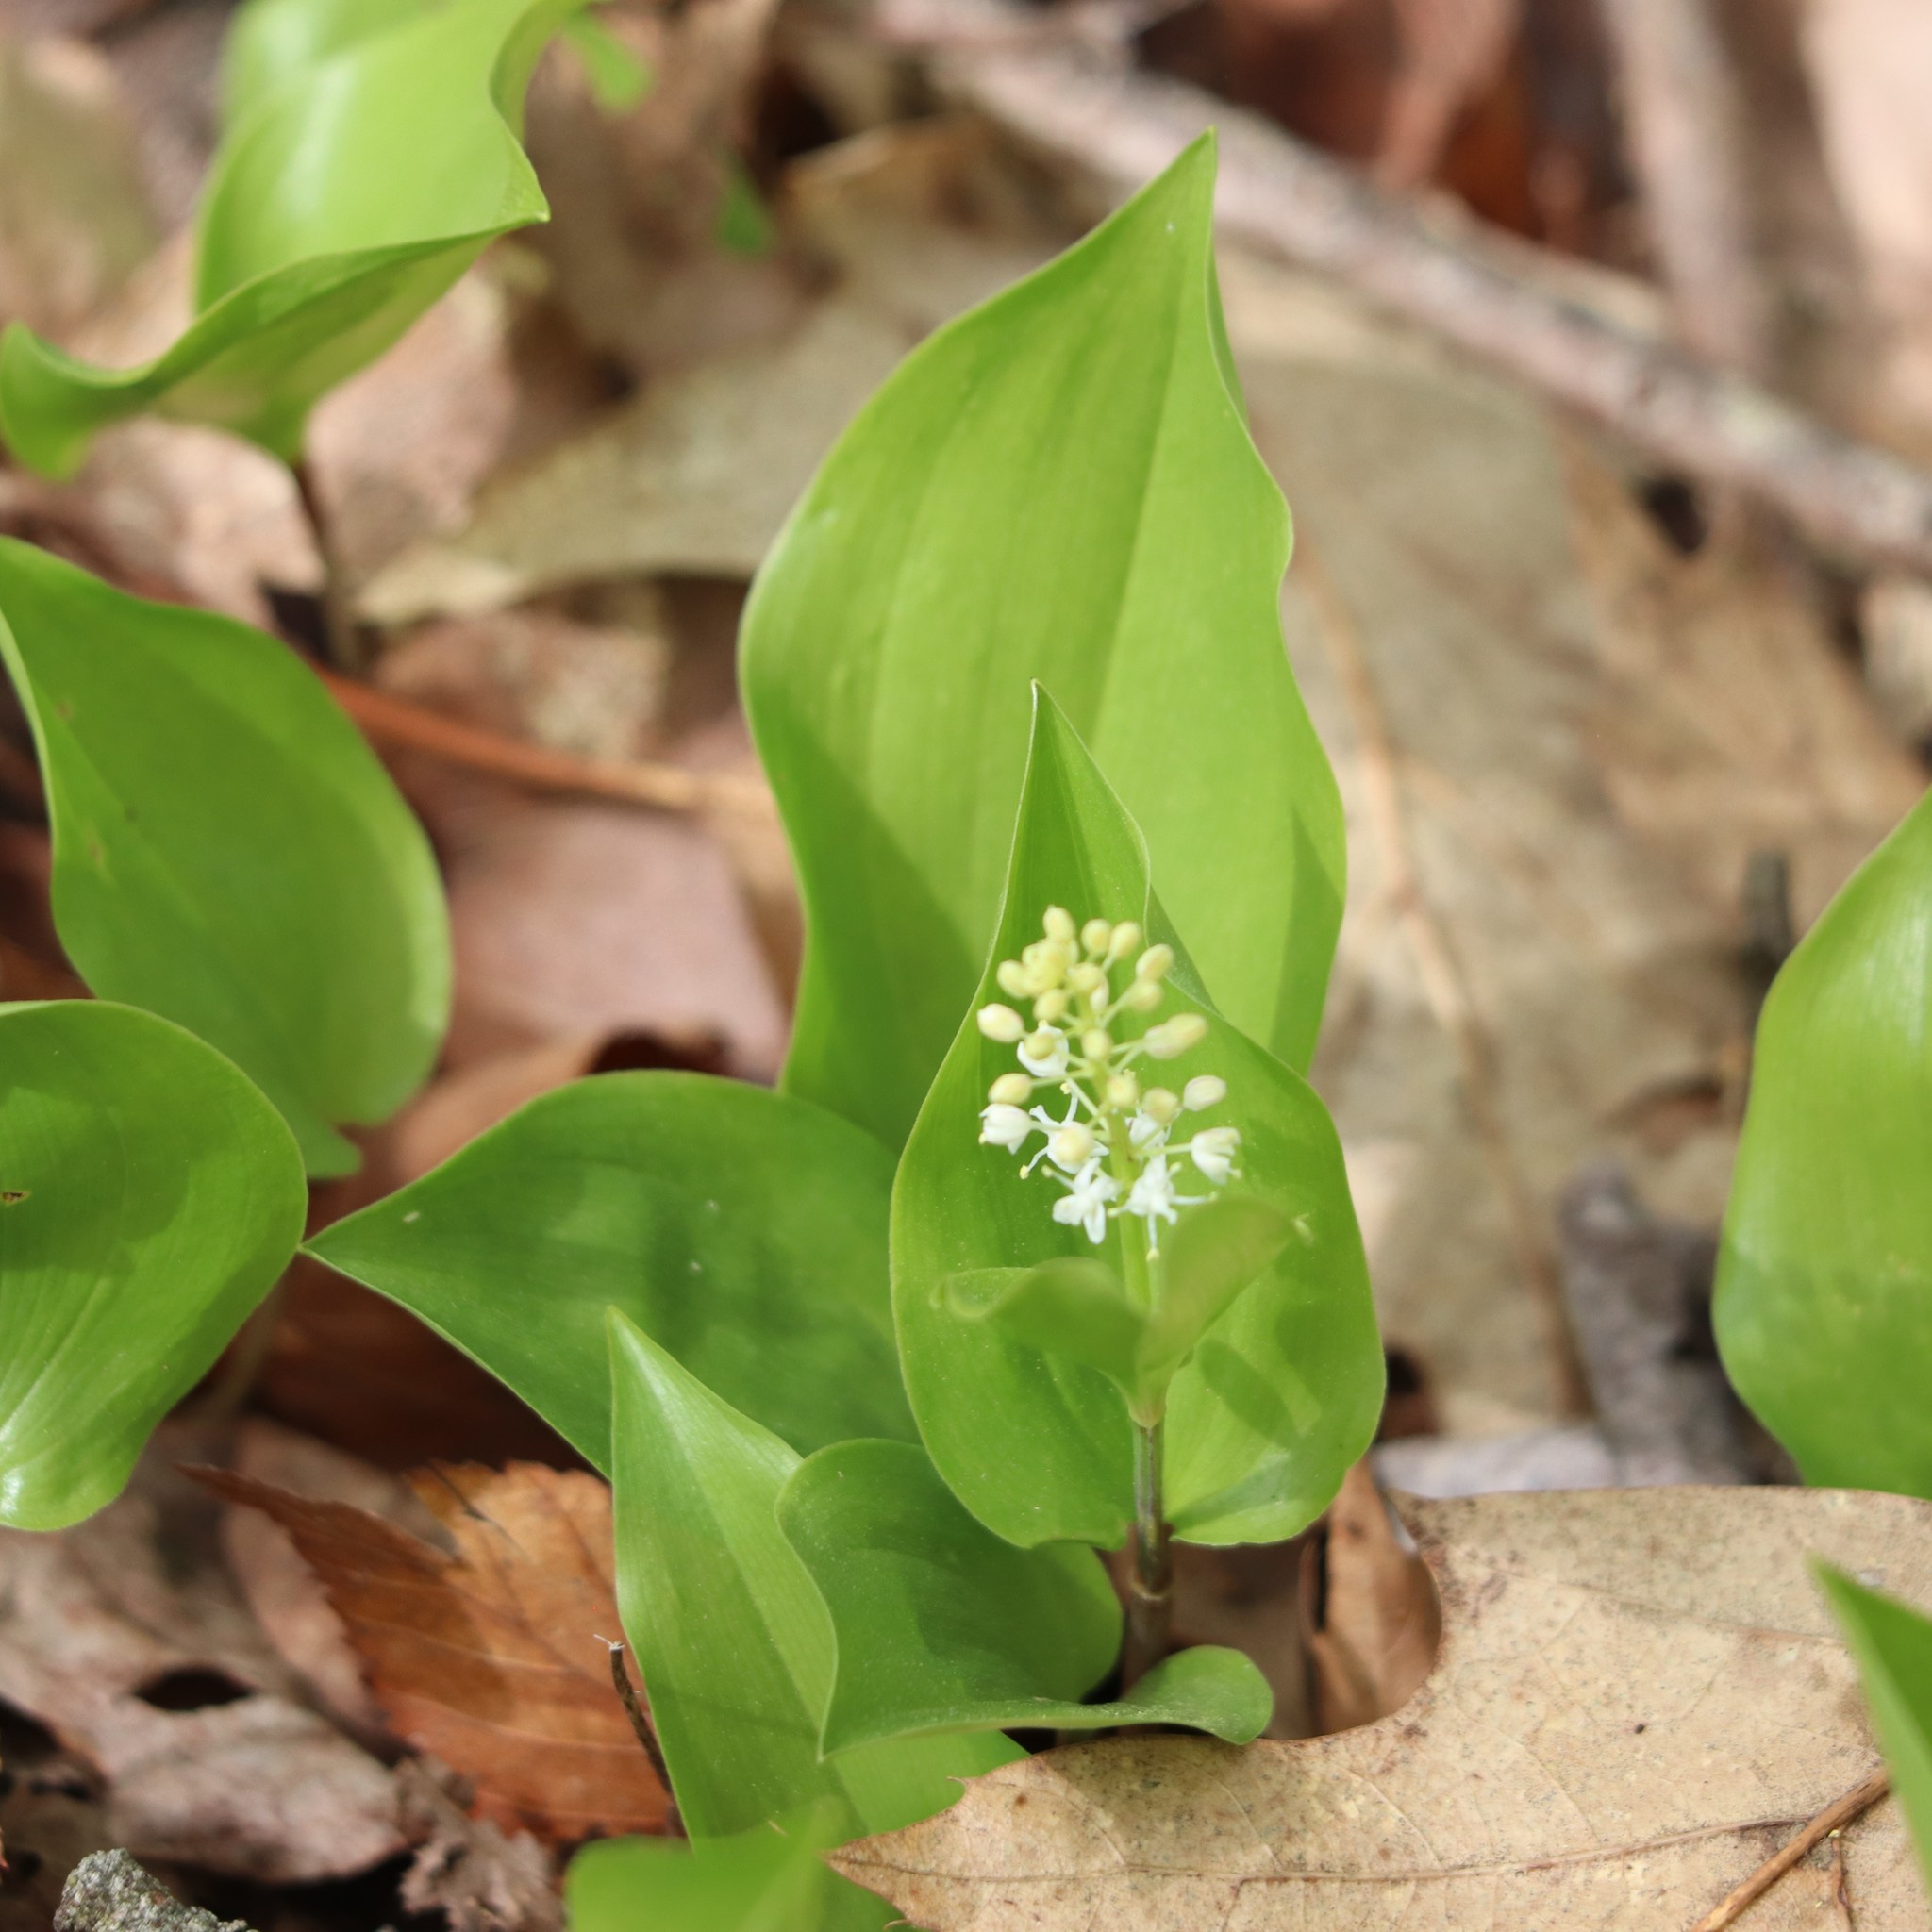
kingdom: Plantae
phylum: Tracheophyta
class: Liliopsida
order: Asparagales
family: Asparagaceae
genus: Maianthemum
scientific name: Maianthemum canadense
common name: False lily-of-the-valley
